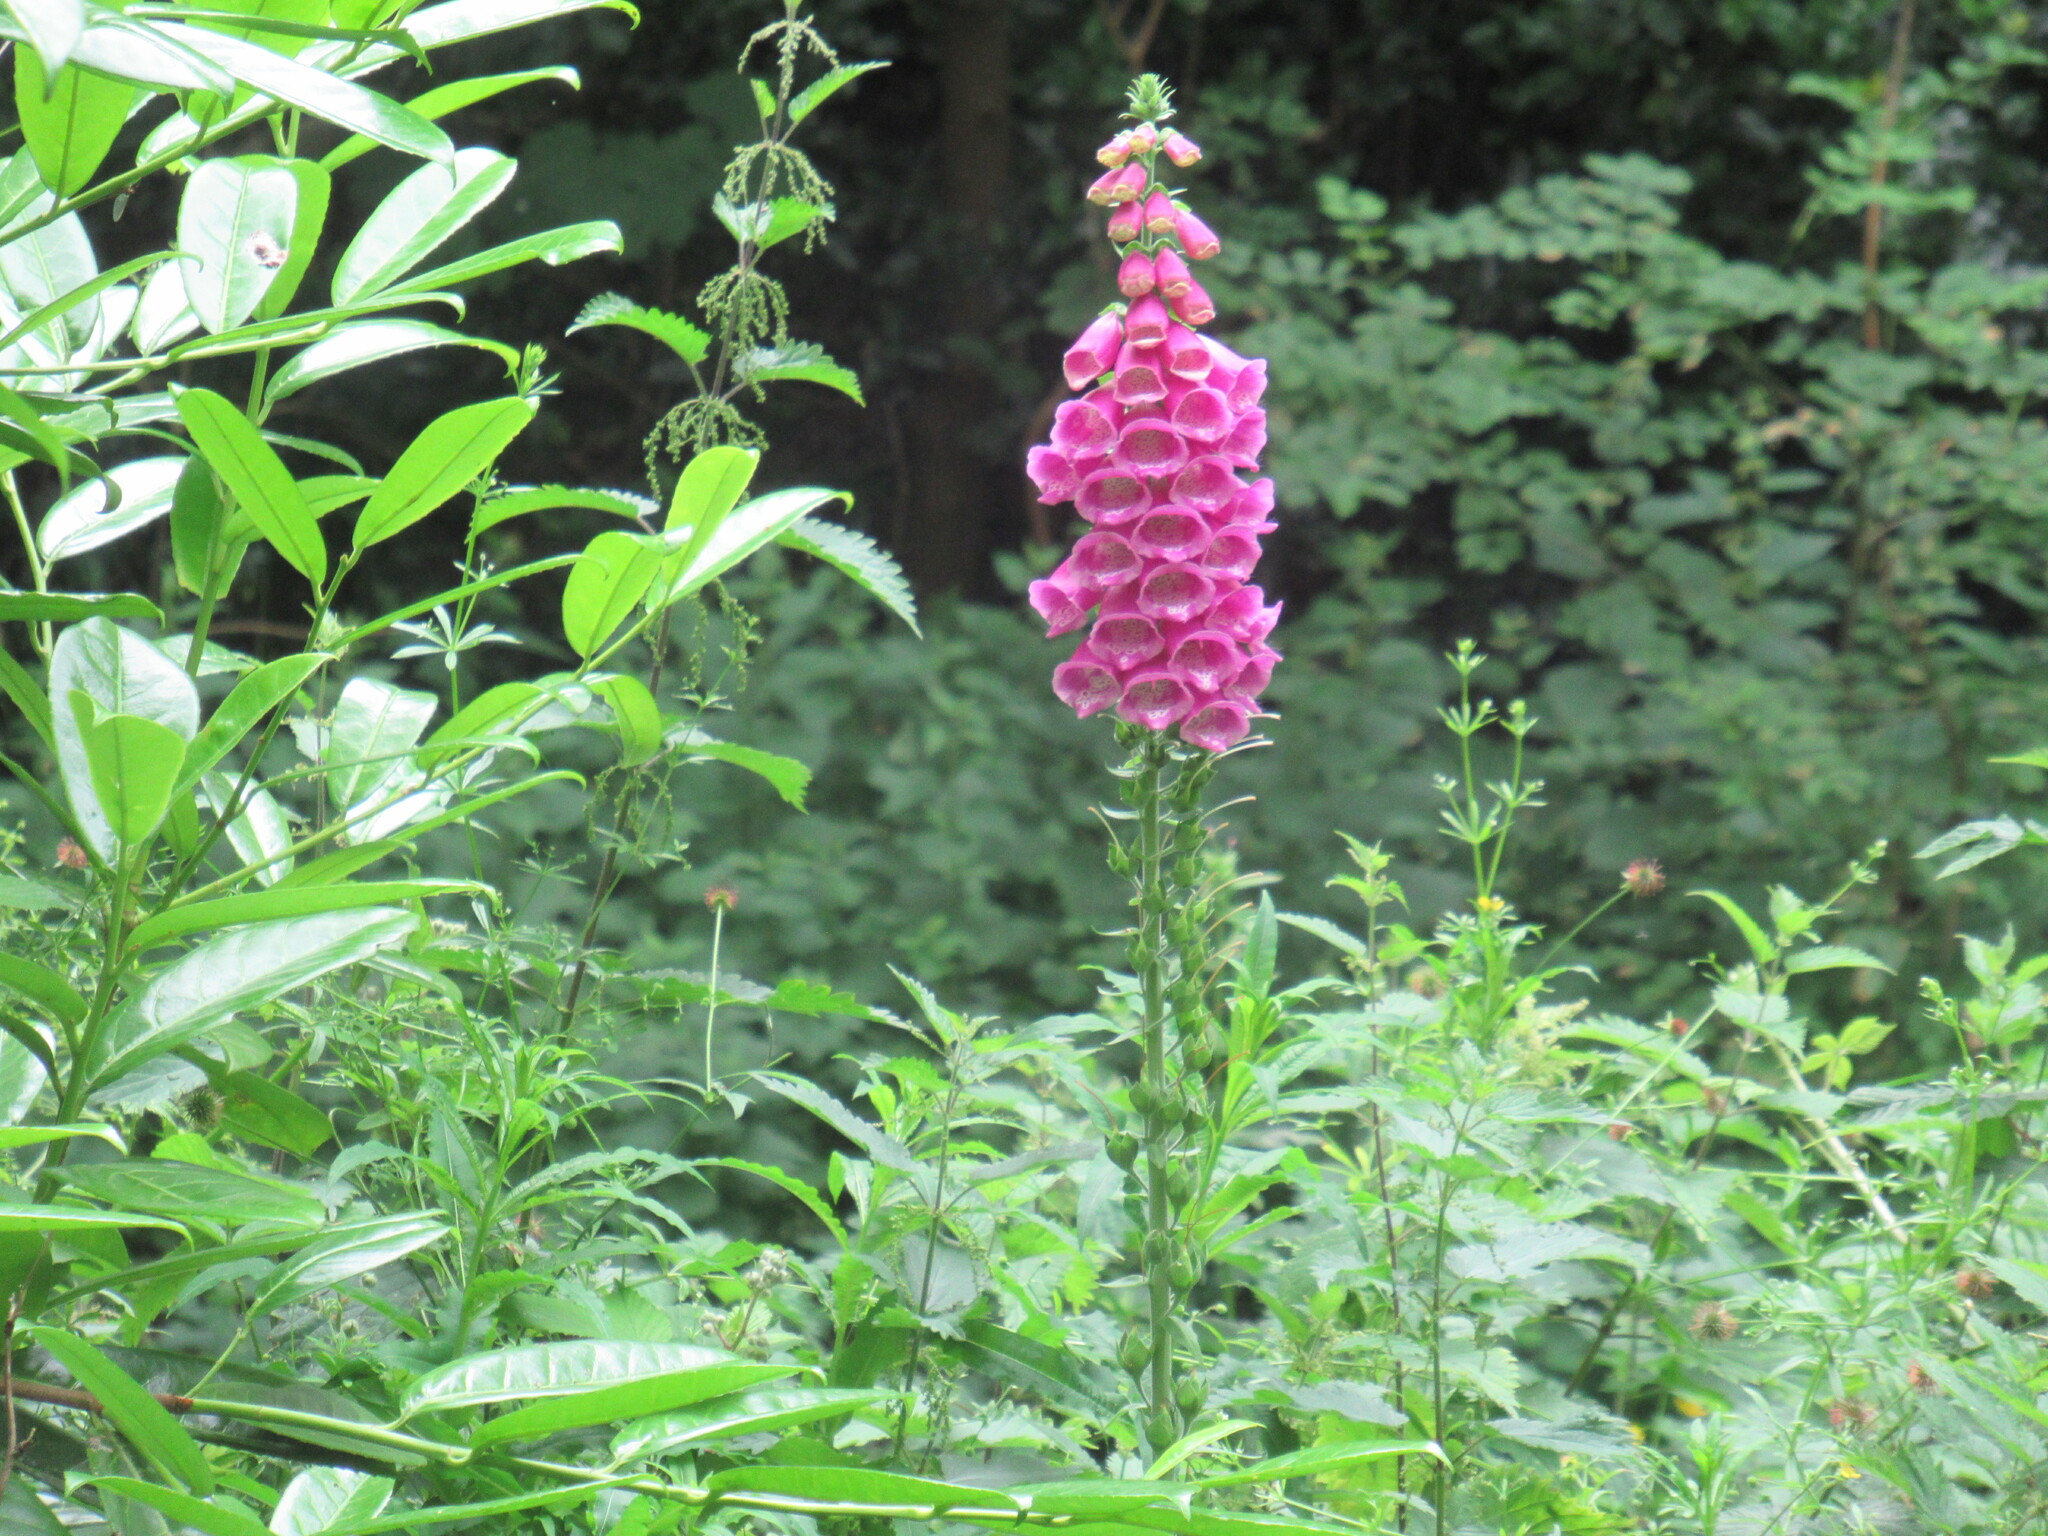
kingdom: Plantae
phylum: Tracheophyta
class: Magnoliopsida
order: Lamiales
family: Plantaginaceae
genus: Digitalis
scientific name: Digitalis purpurea
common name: Foxglove
